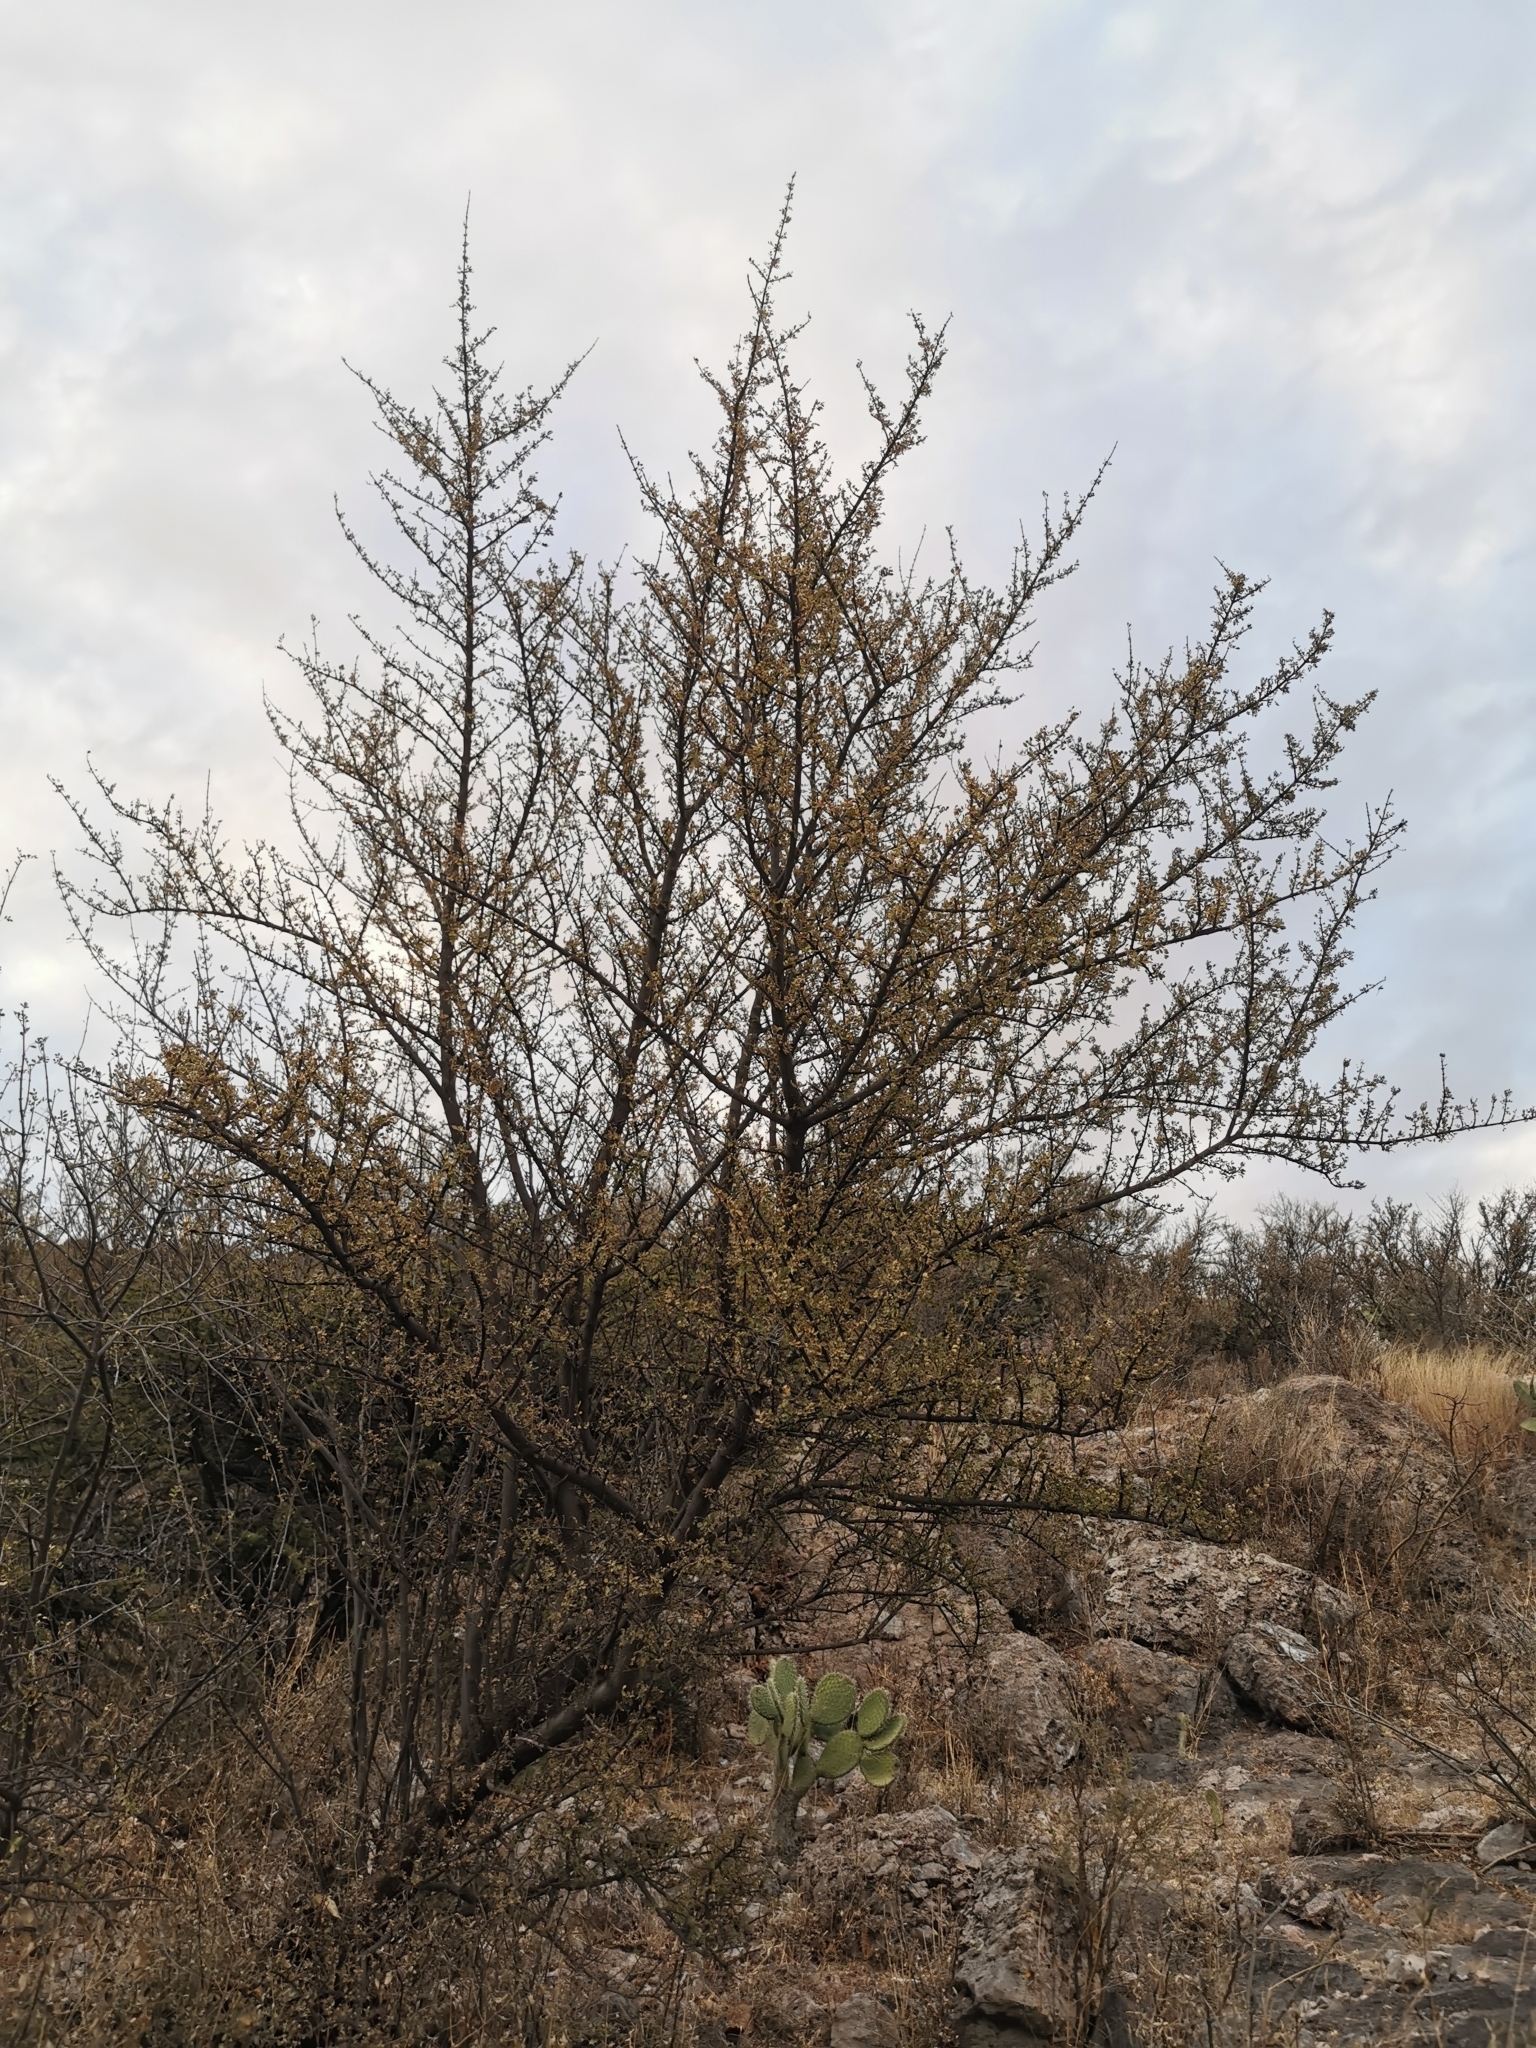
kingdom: Plantae
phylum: Tracheophyta
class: Magnoliopsida
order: Sapindales
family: Anacardiaceae
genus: Rhus
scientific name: Rhus microphylla
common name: Desert sumac
